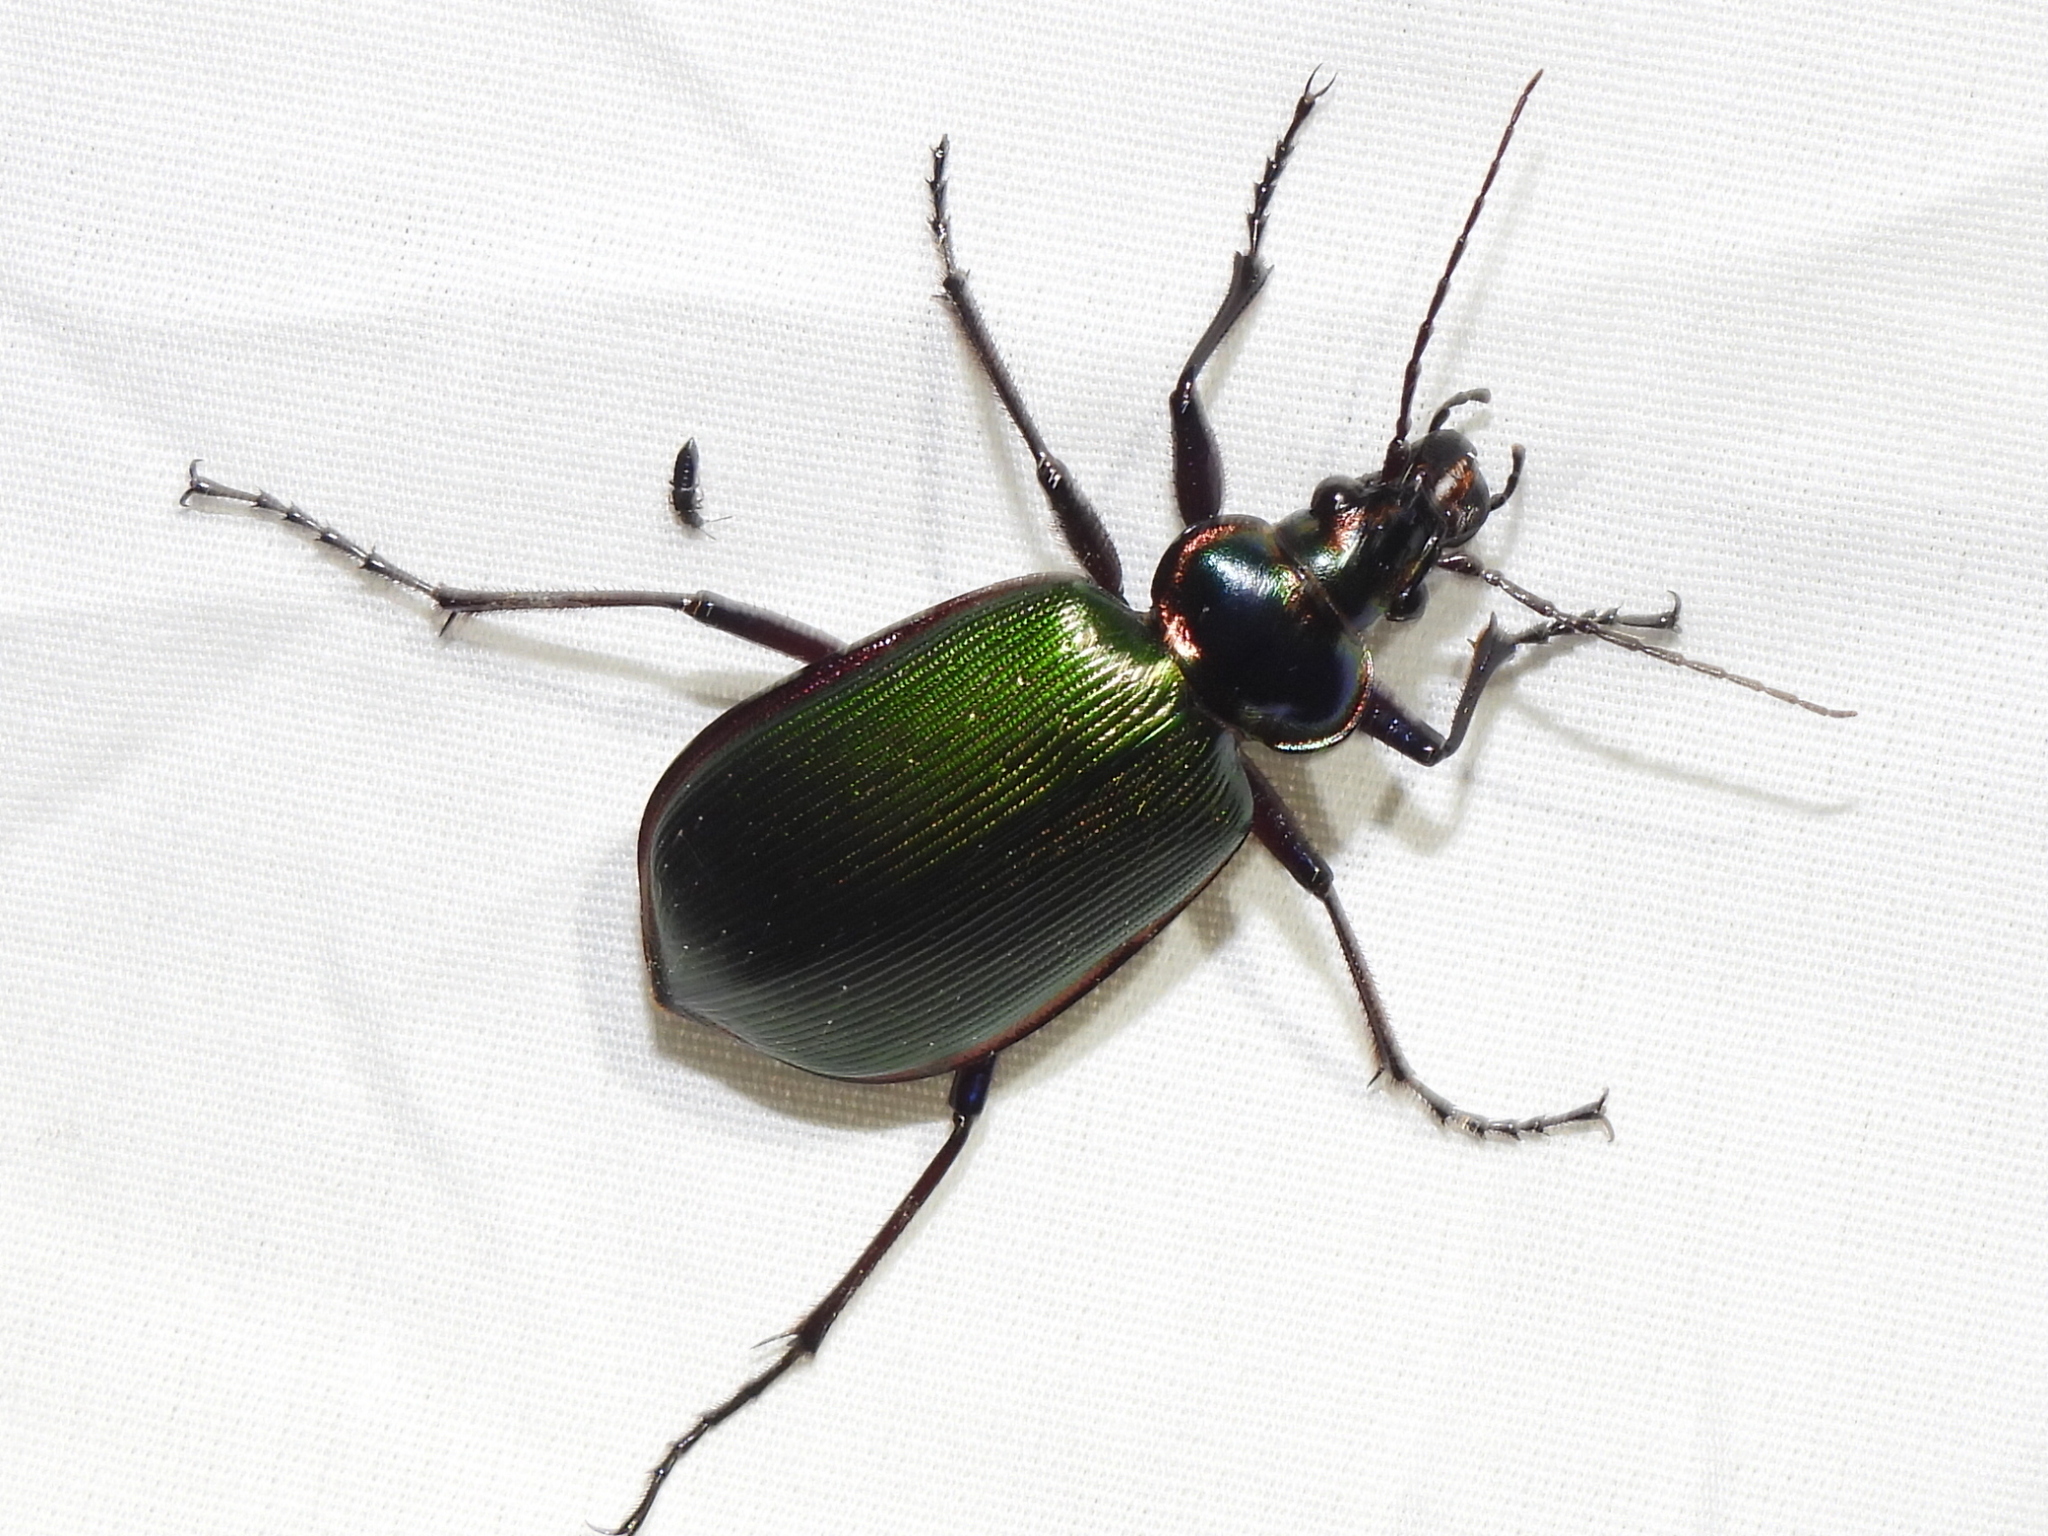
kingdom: Animalia
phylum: Arthropoda
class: Insecta
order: Coleoptera
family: Carabidae
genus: Calosoma
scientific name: Calosoma scrutator
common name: Fiery searcher beetle
